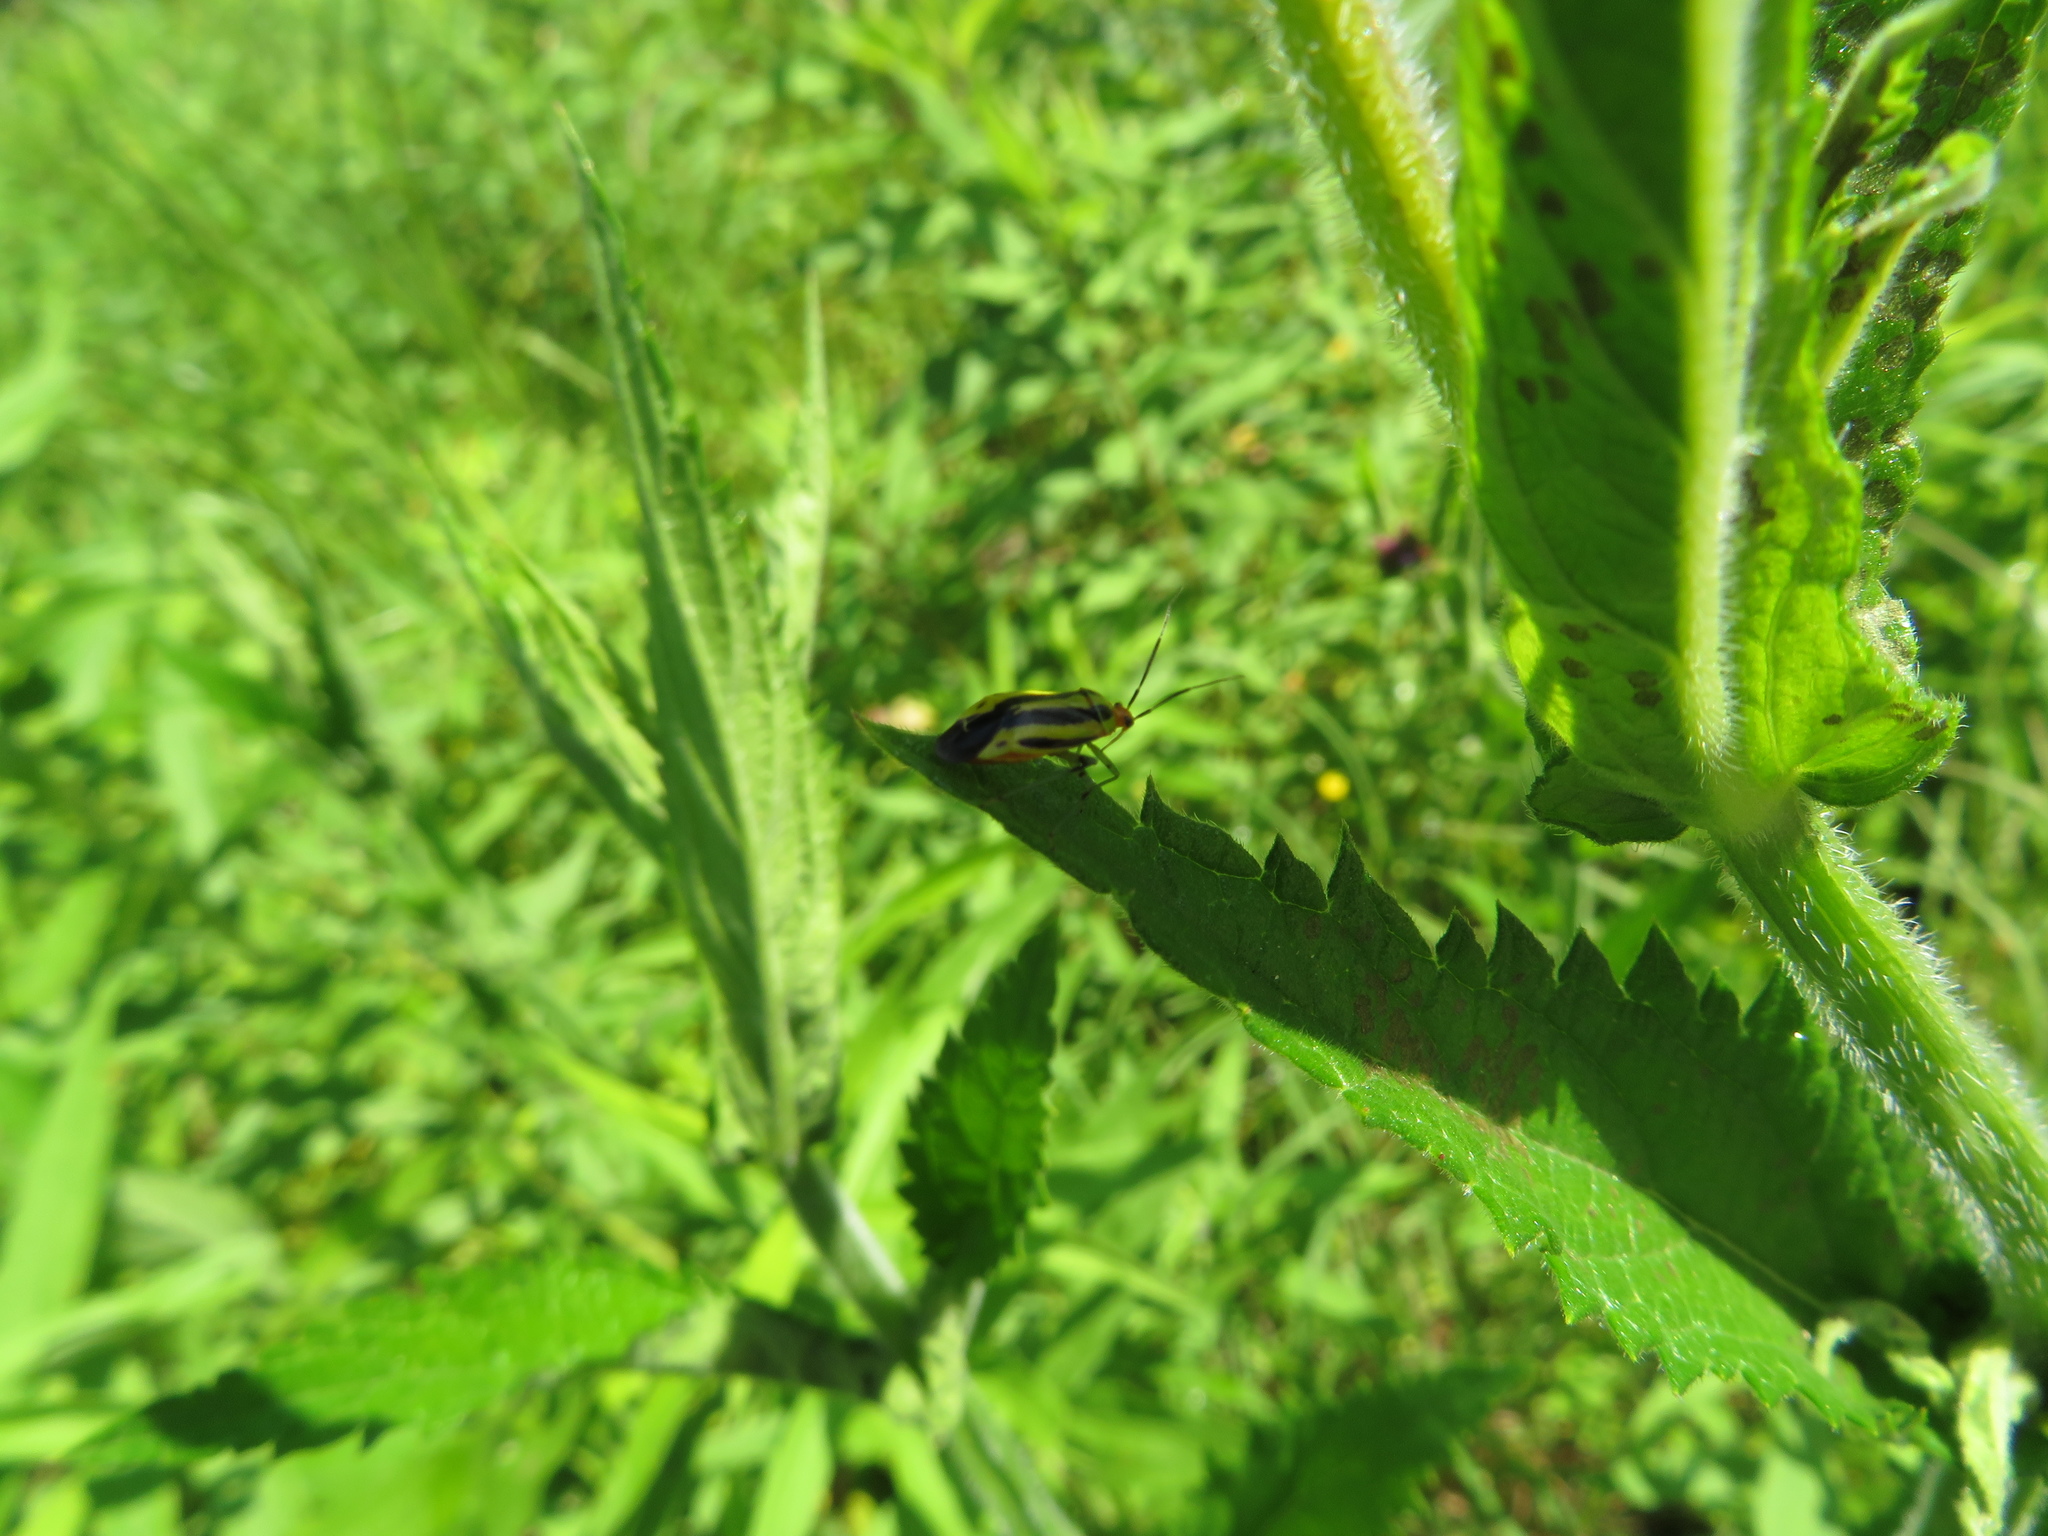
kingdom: Animalia
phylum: Arthropoda
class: Insecta
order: Hemiptera
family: Miridae
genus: Poecilocapsus
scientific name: Poecilocapsus lineatus
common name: Four-lined plant bug
